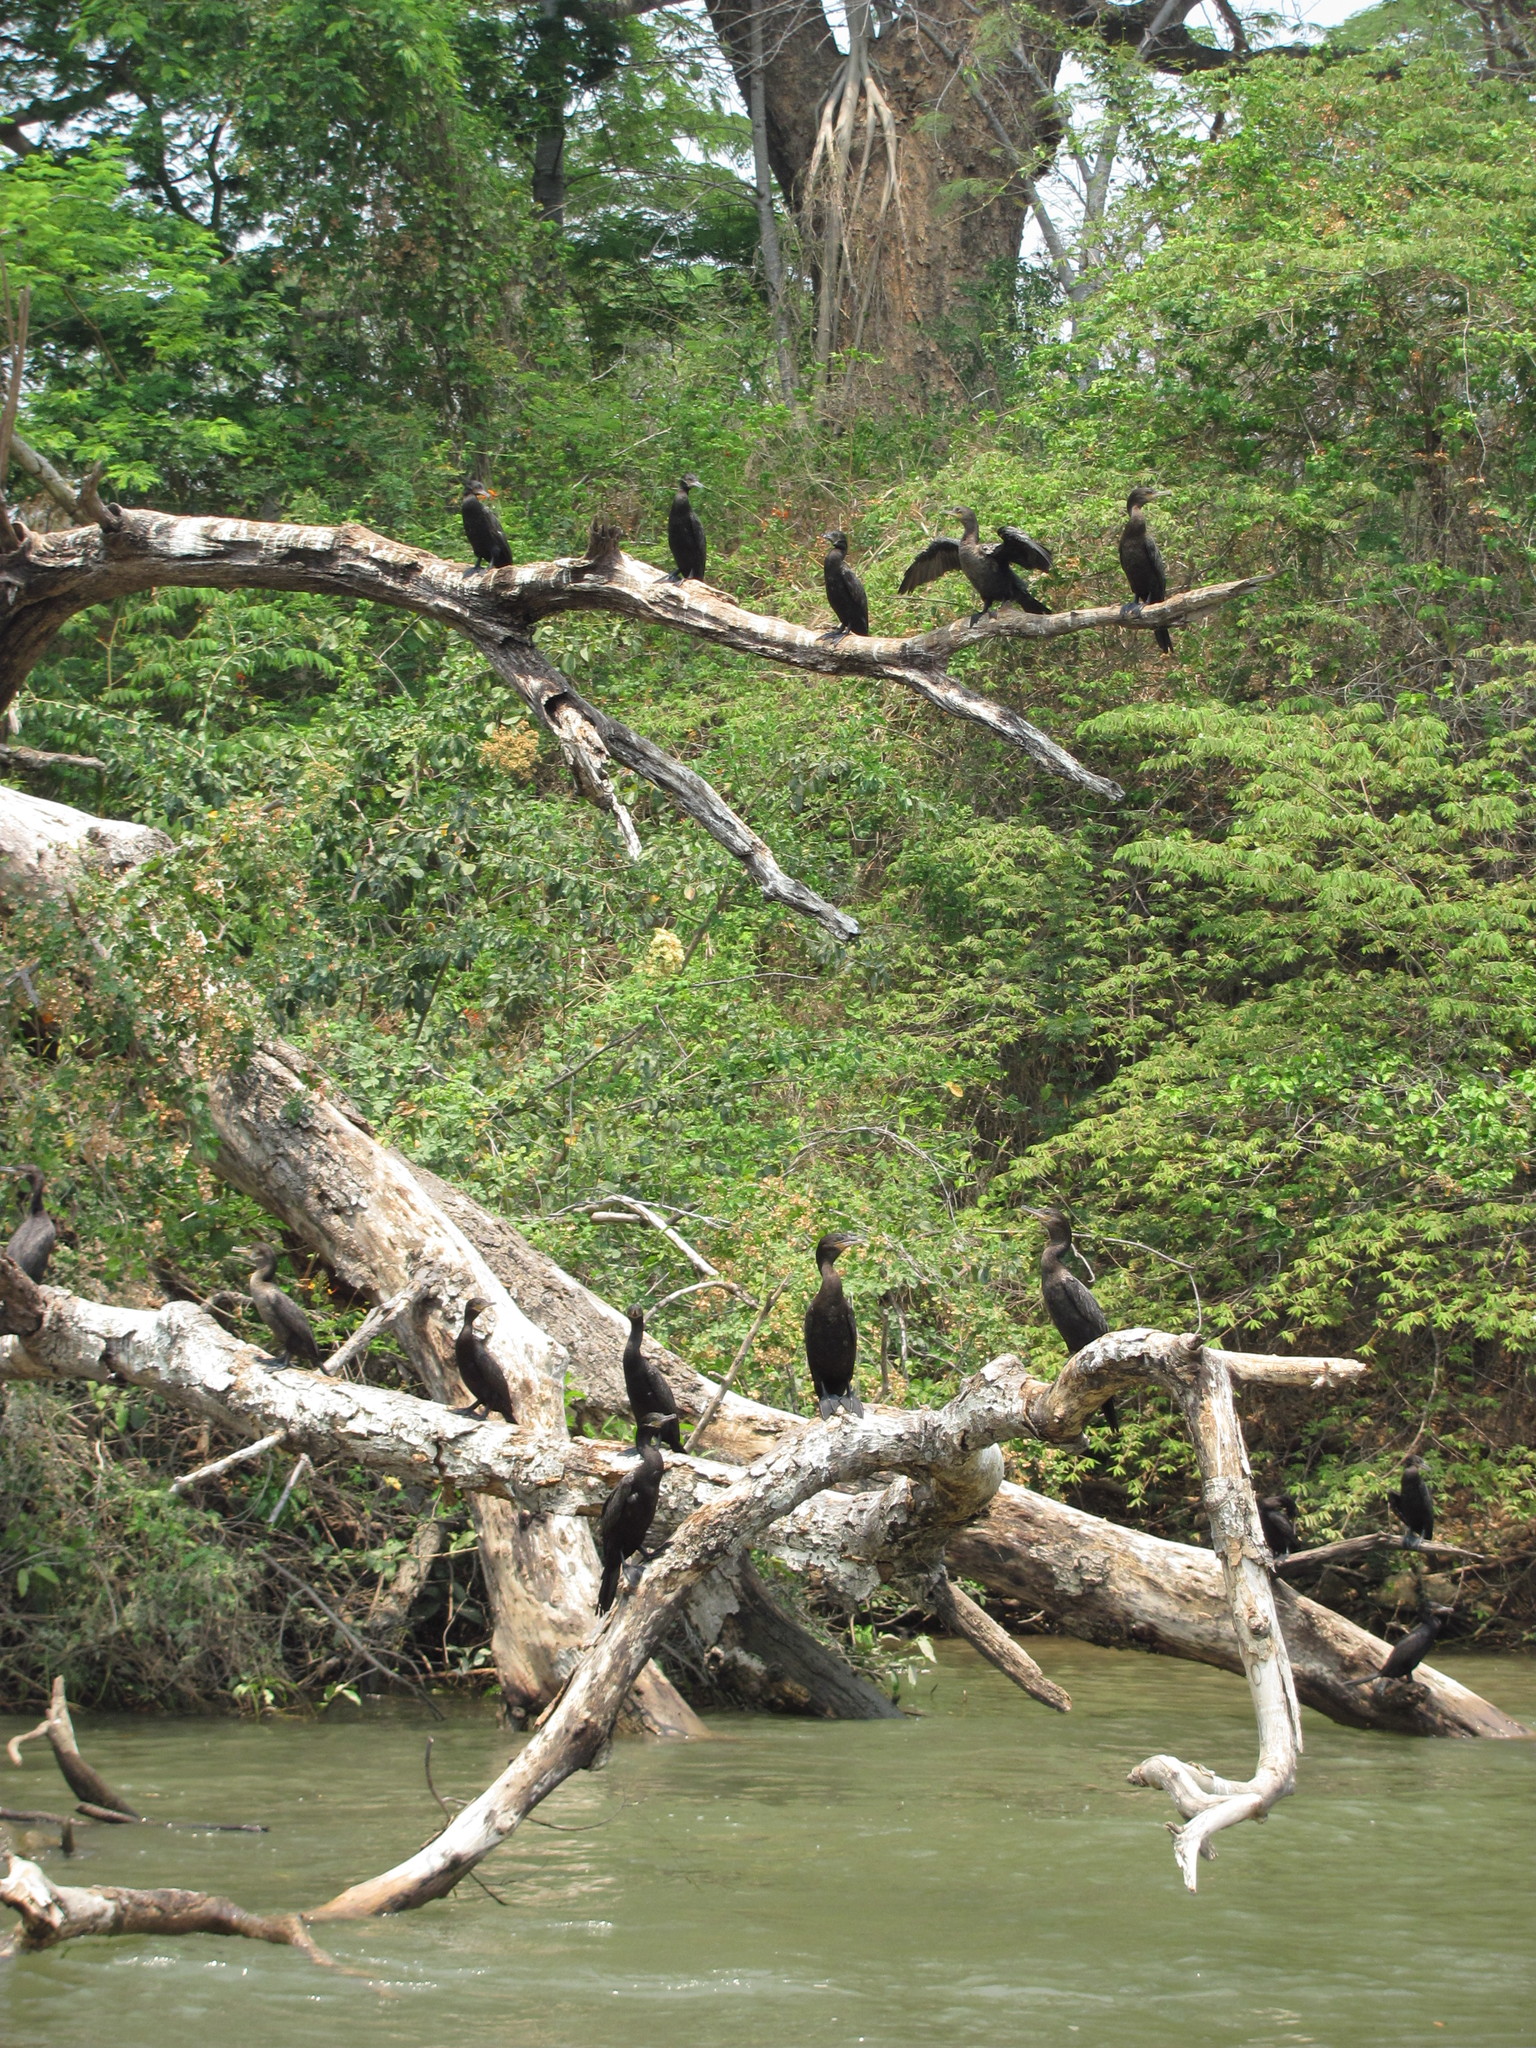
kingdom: Animalia
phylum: Chordata
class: Aves
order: Suliformes
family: Phalacrocoracidae
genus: Phalacrocorax
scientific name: Phalacrocorax brasilianus
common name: Neotropic cormorant
